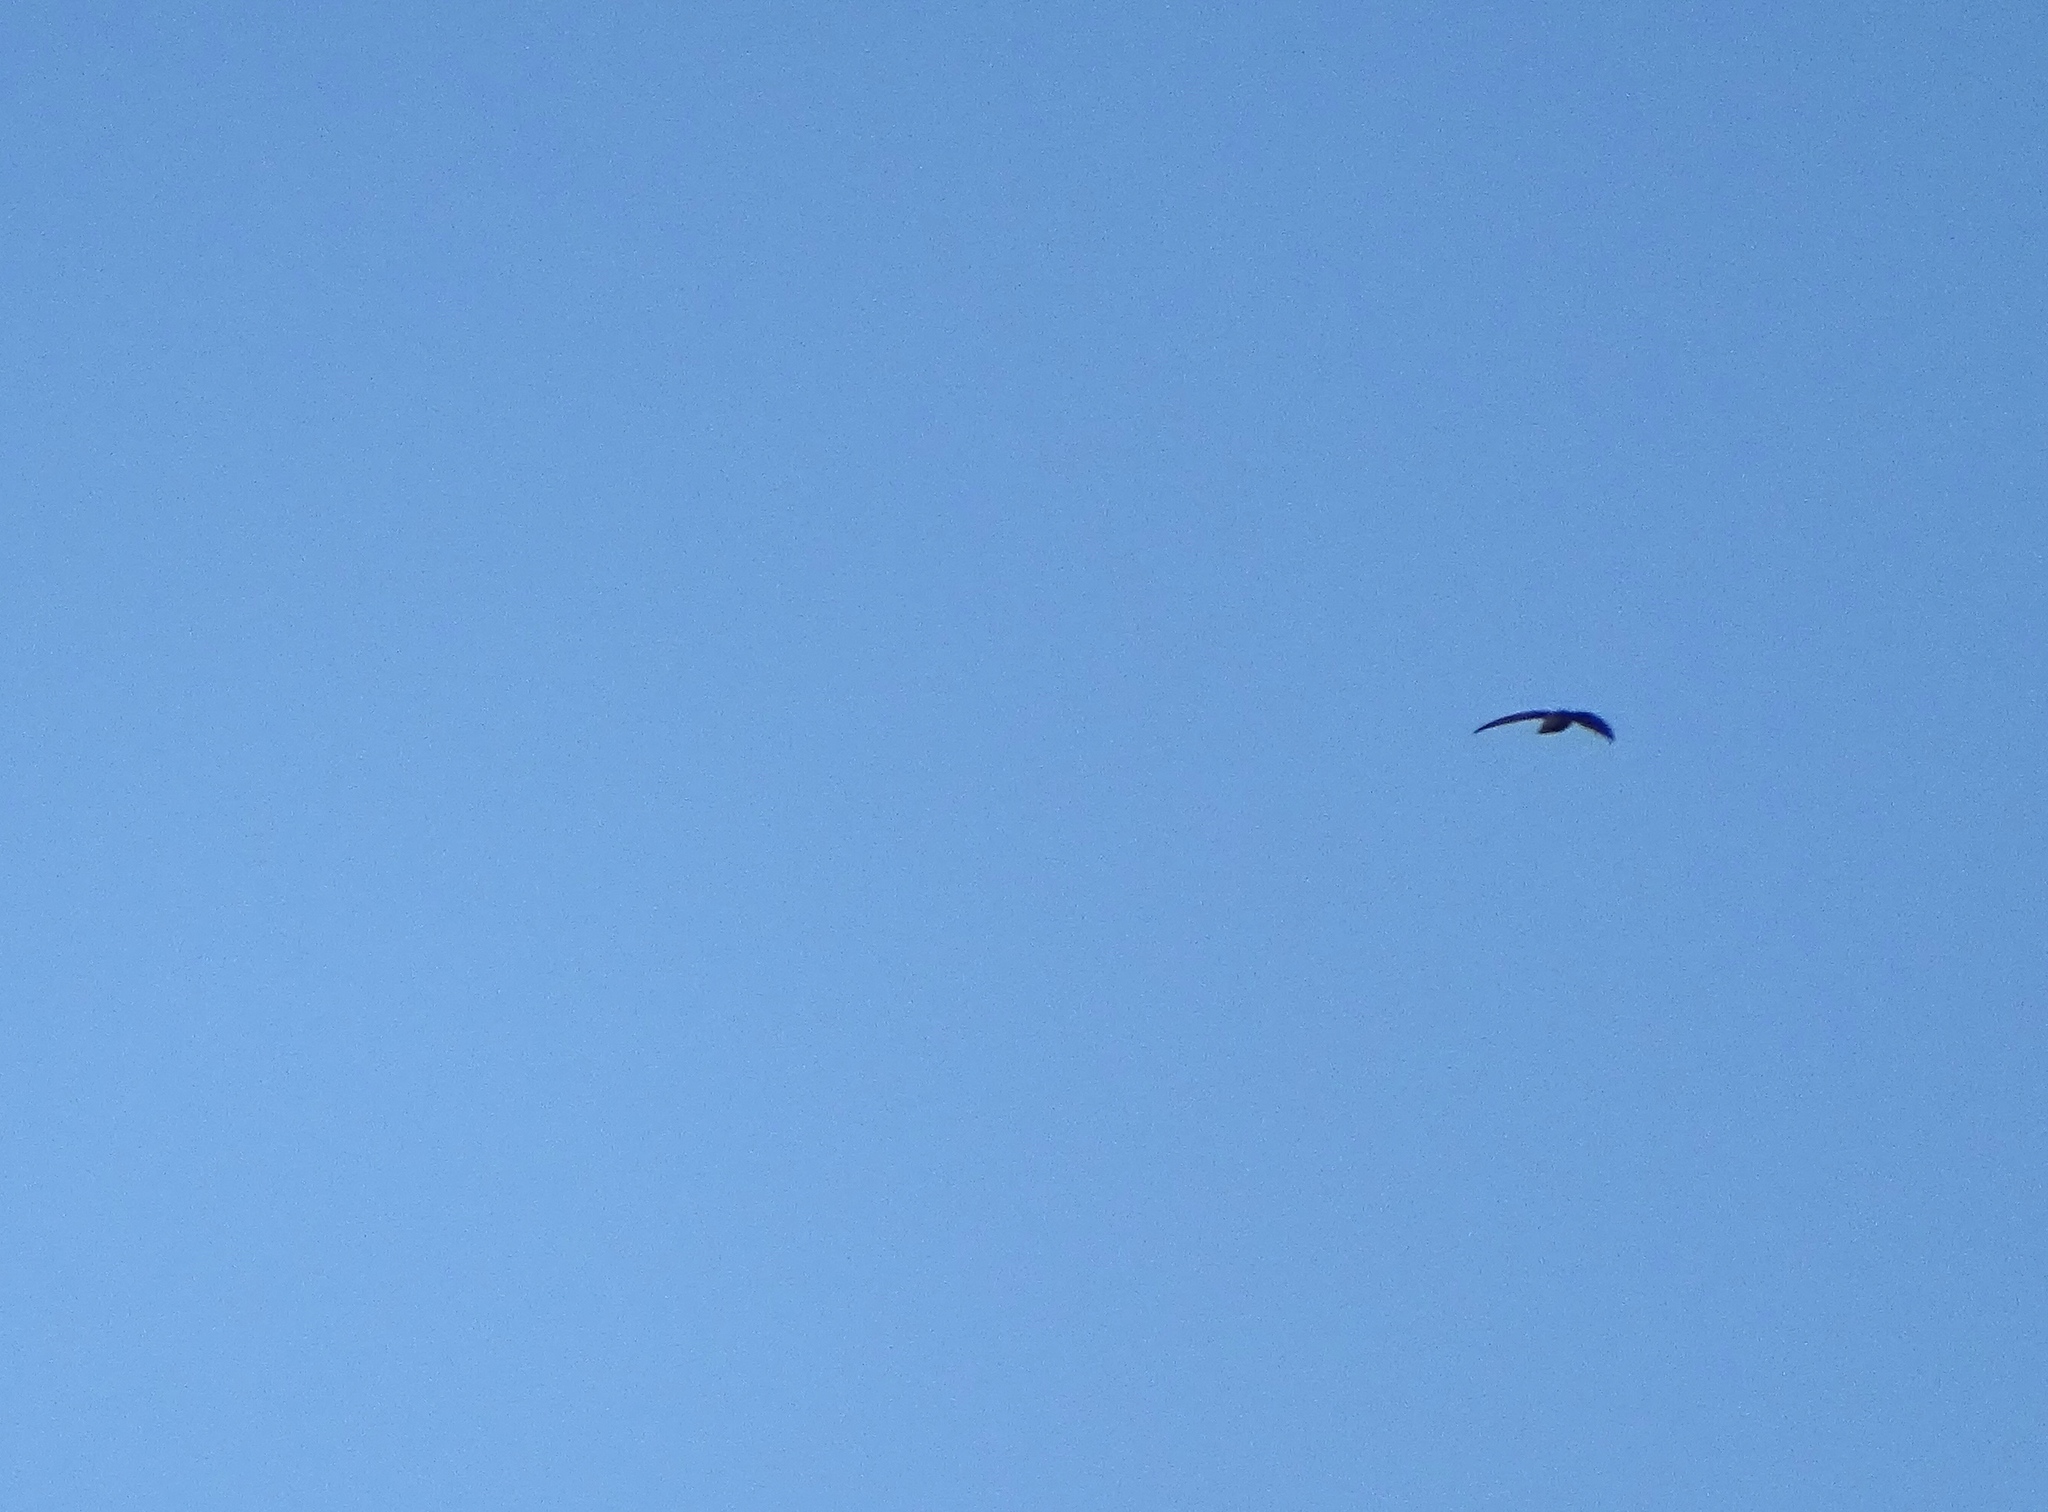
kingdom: Animalia
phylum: Chordata
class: Aves
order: Apodiformes
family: Apodidae
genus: Chaetura
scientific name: Chaetura pelagica
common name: Chimney swift
